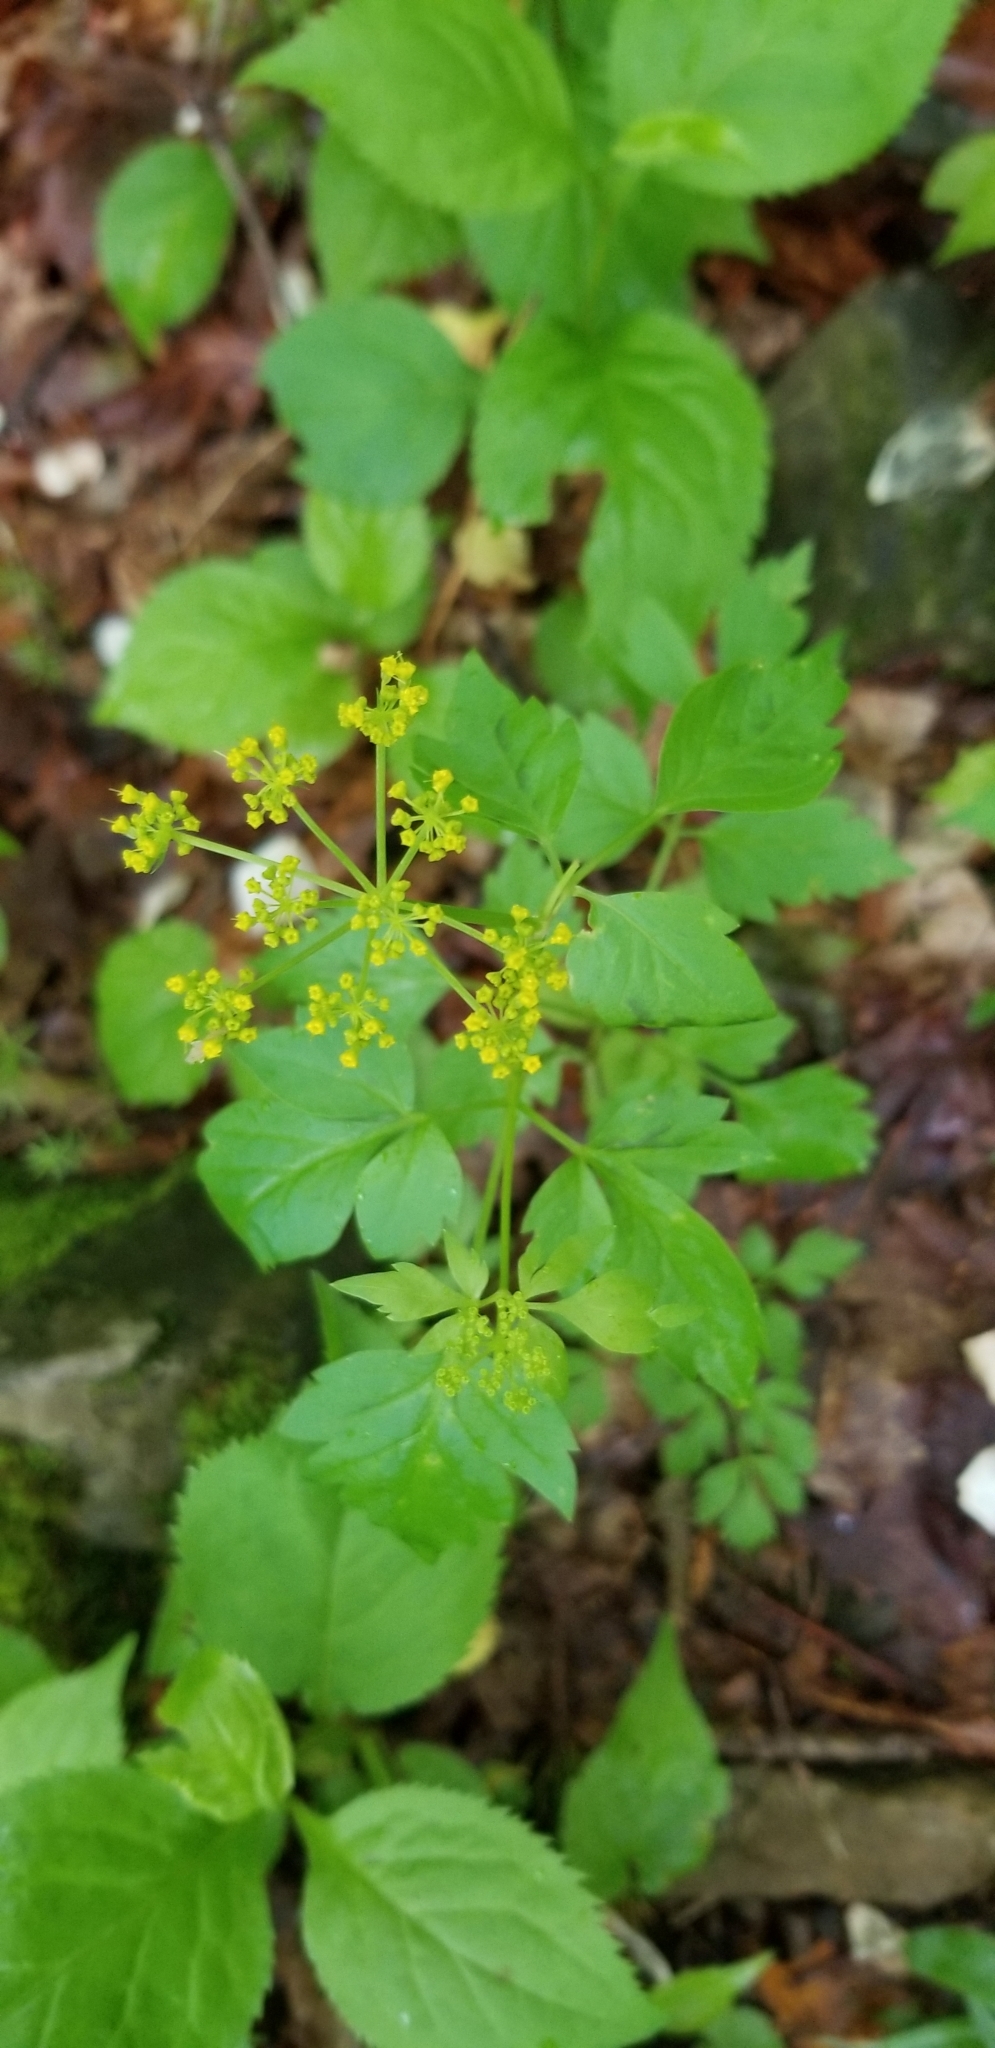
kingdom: Plantae
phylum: Tracheophyta
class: Magnoliopsida
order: Apiales
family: Apiaceae
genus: Zizia
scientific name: Zizia aurea
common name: Golden alexanders
